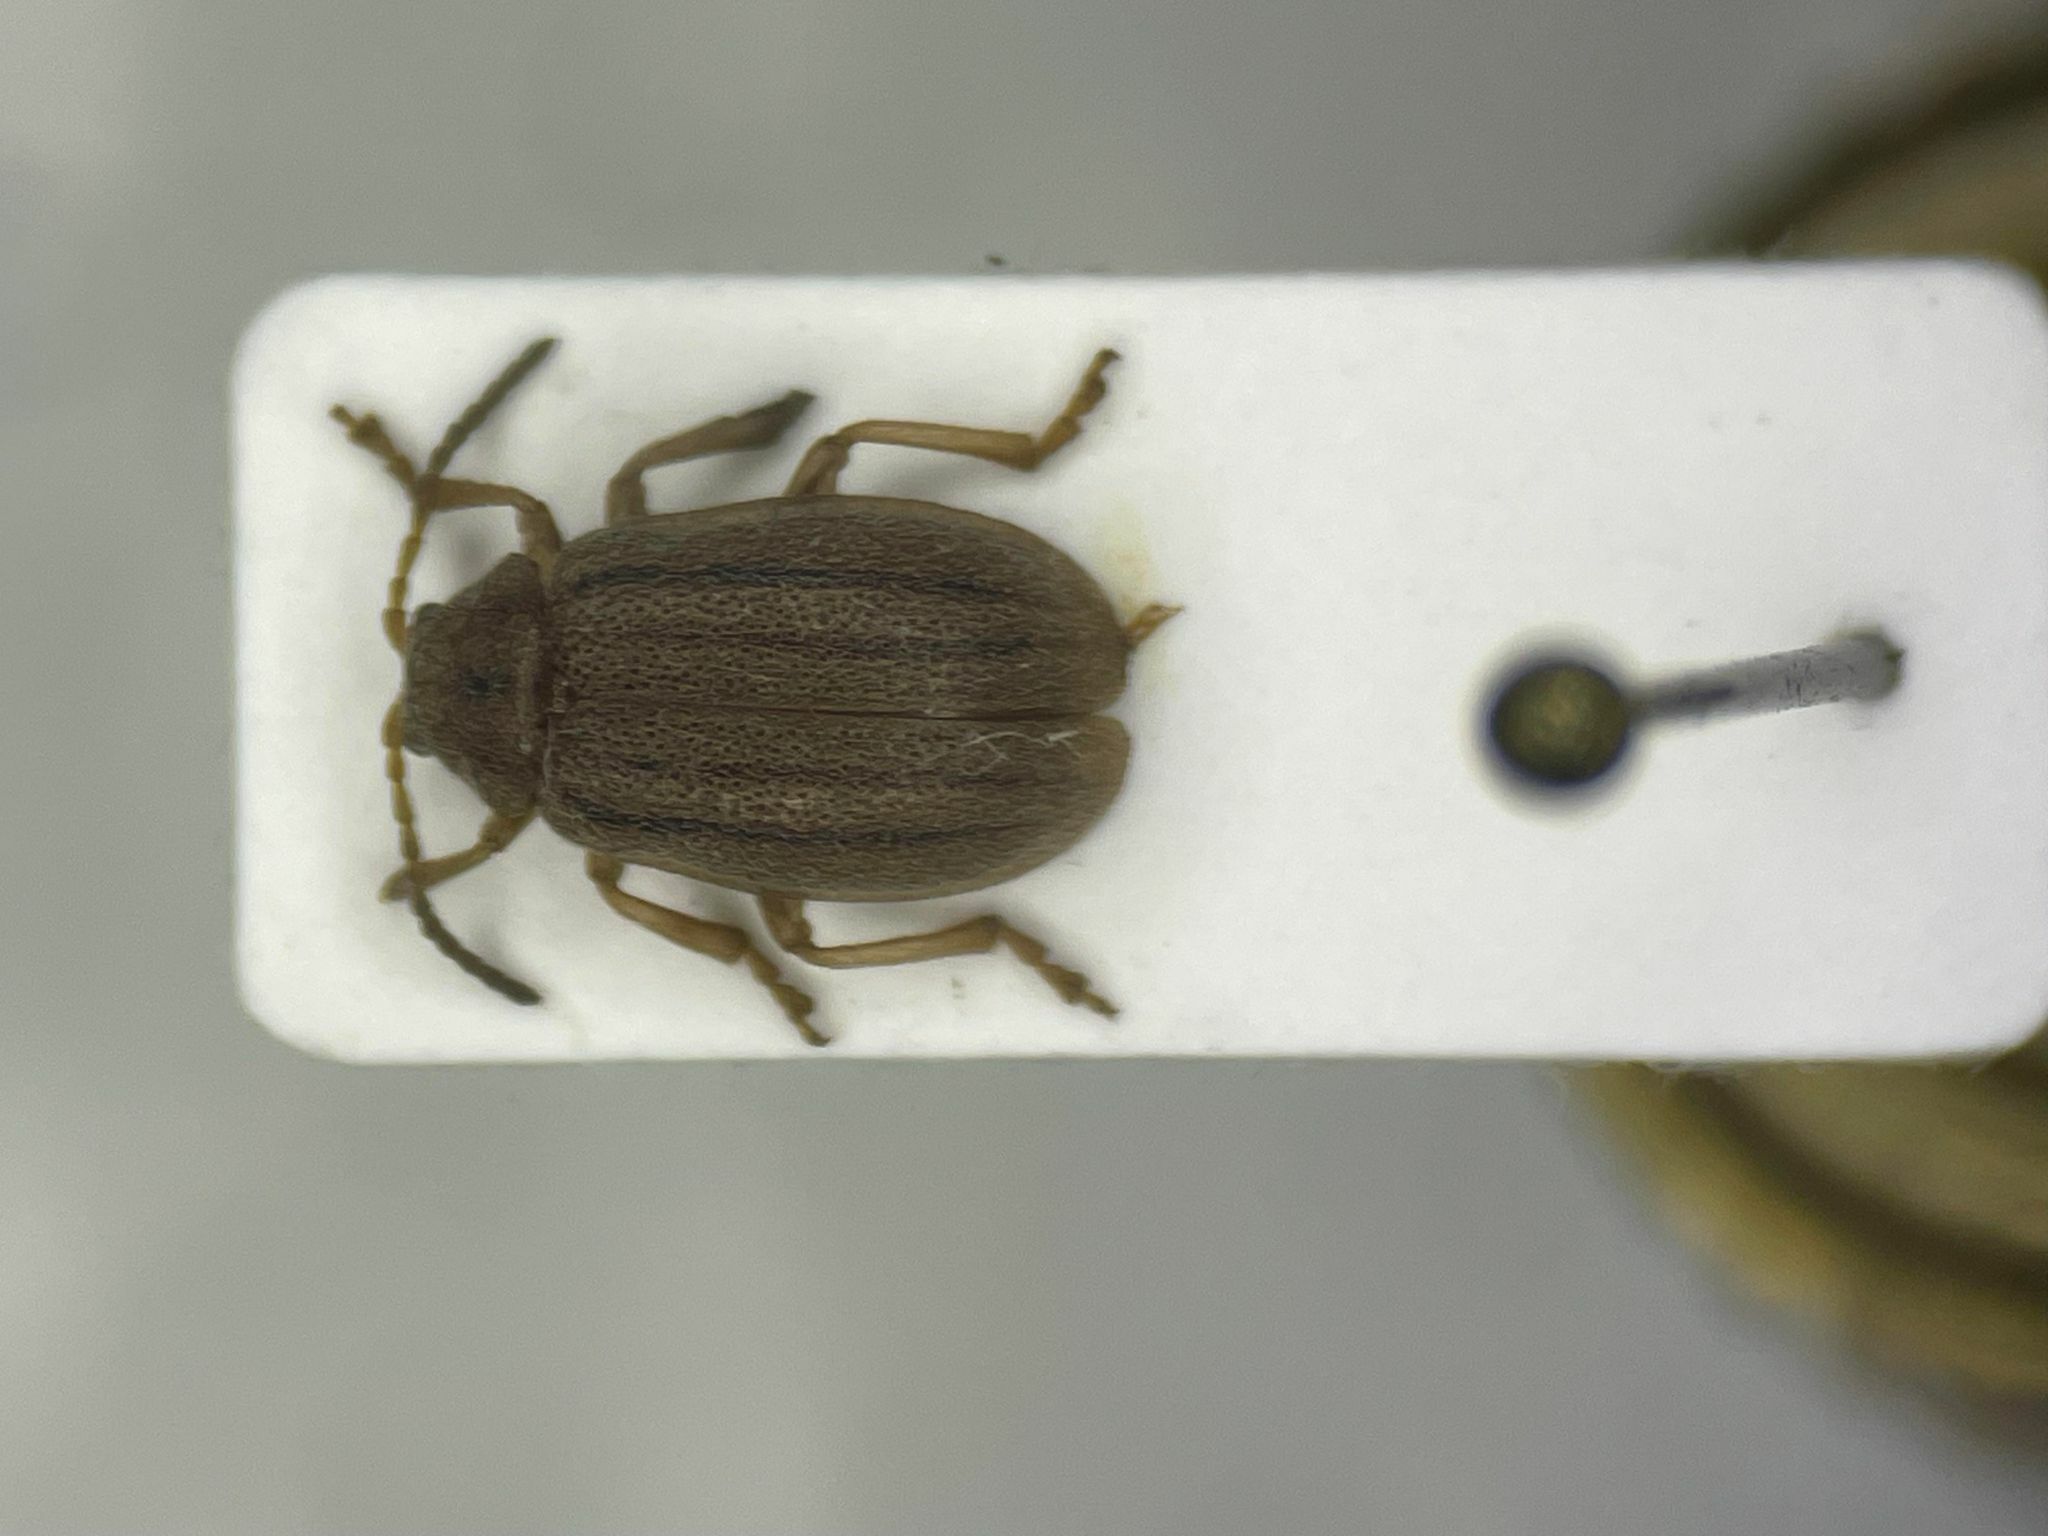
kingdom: Animalia
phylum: Arthropoda
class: Insecta
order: Coleoptera
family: Chrysomelidae
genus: Ophraella
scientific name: Ophraella pilosa
